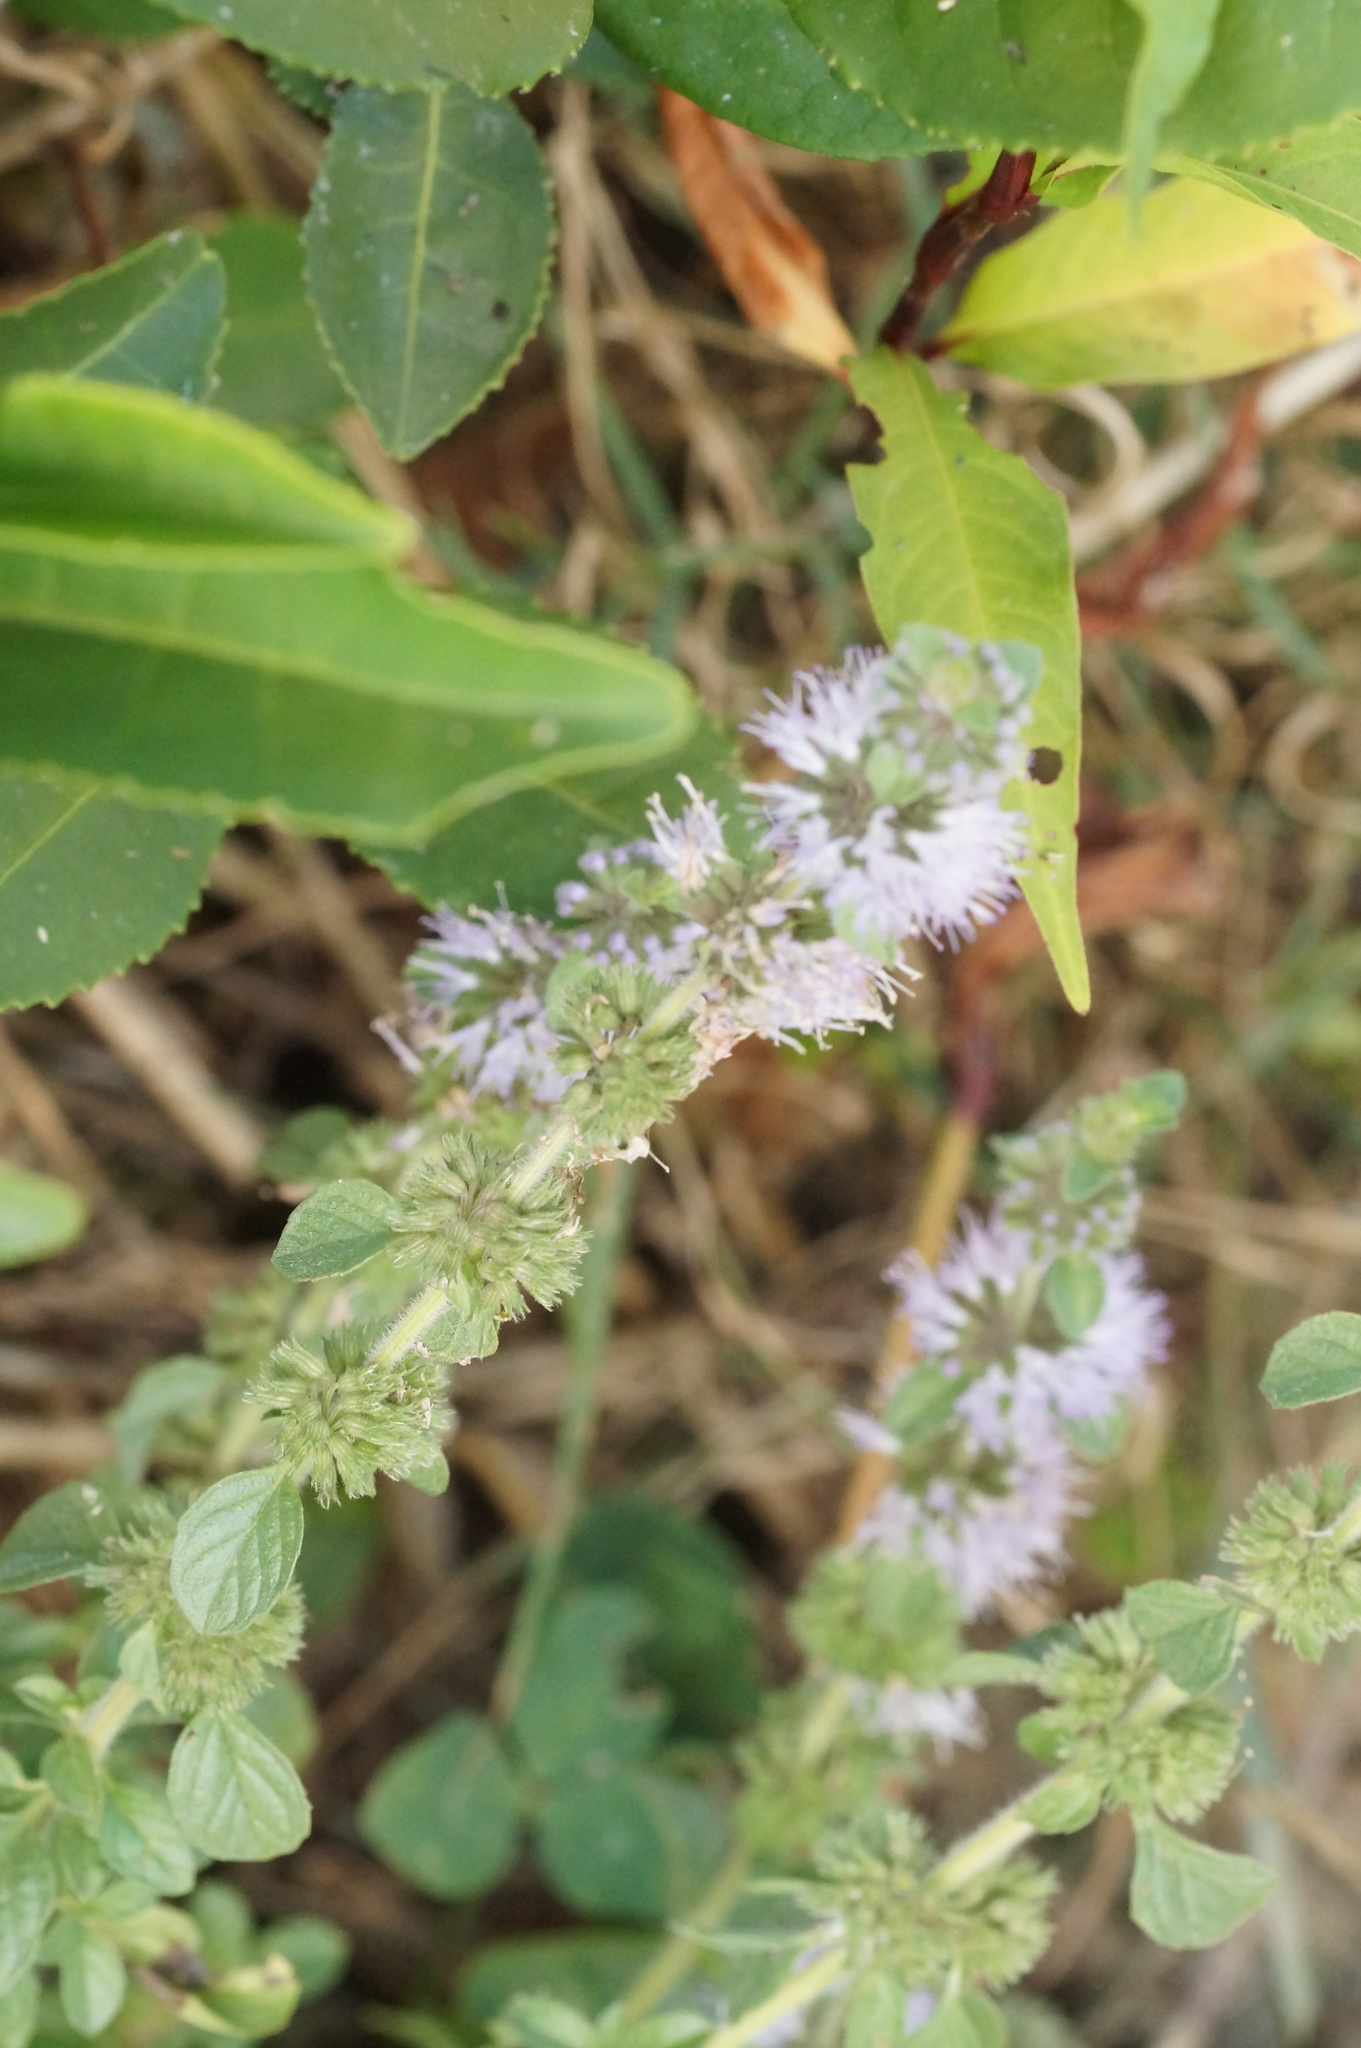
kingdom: Plantae
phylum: Tracheophyta
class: Magnoliopsida
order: Lamiales
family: Lamiaceae
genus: Mentha
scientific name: Mentha pulegium
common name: Pennyroyal
